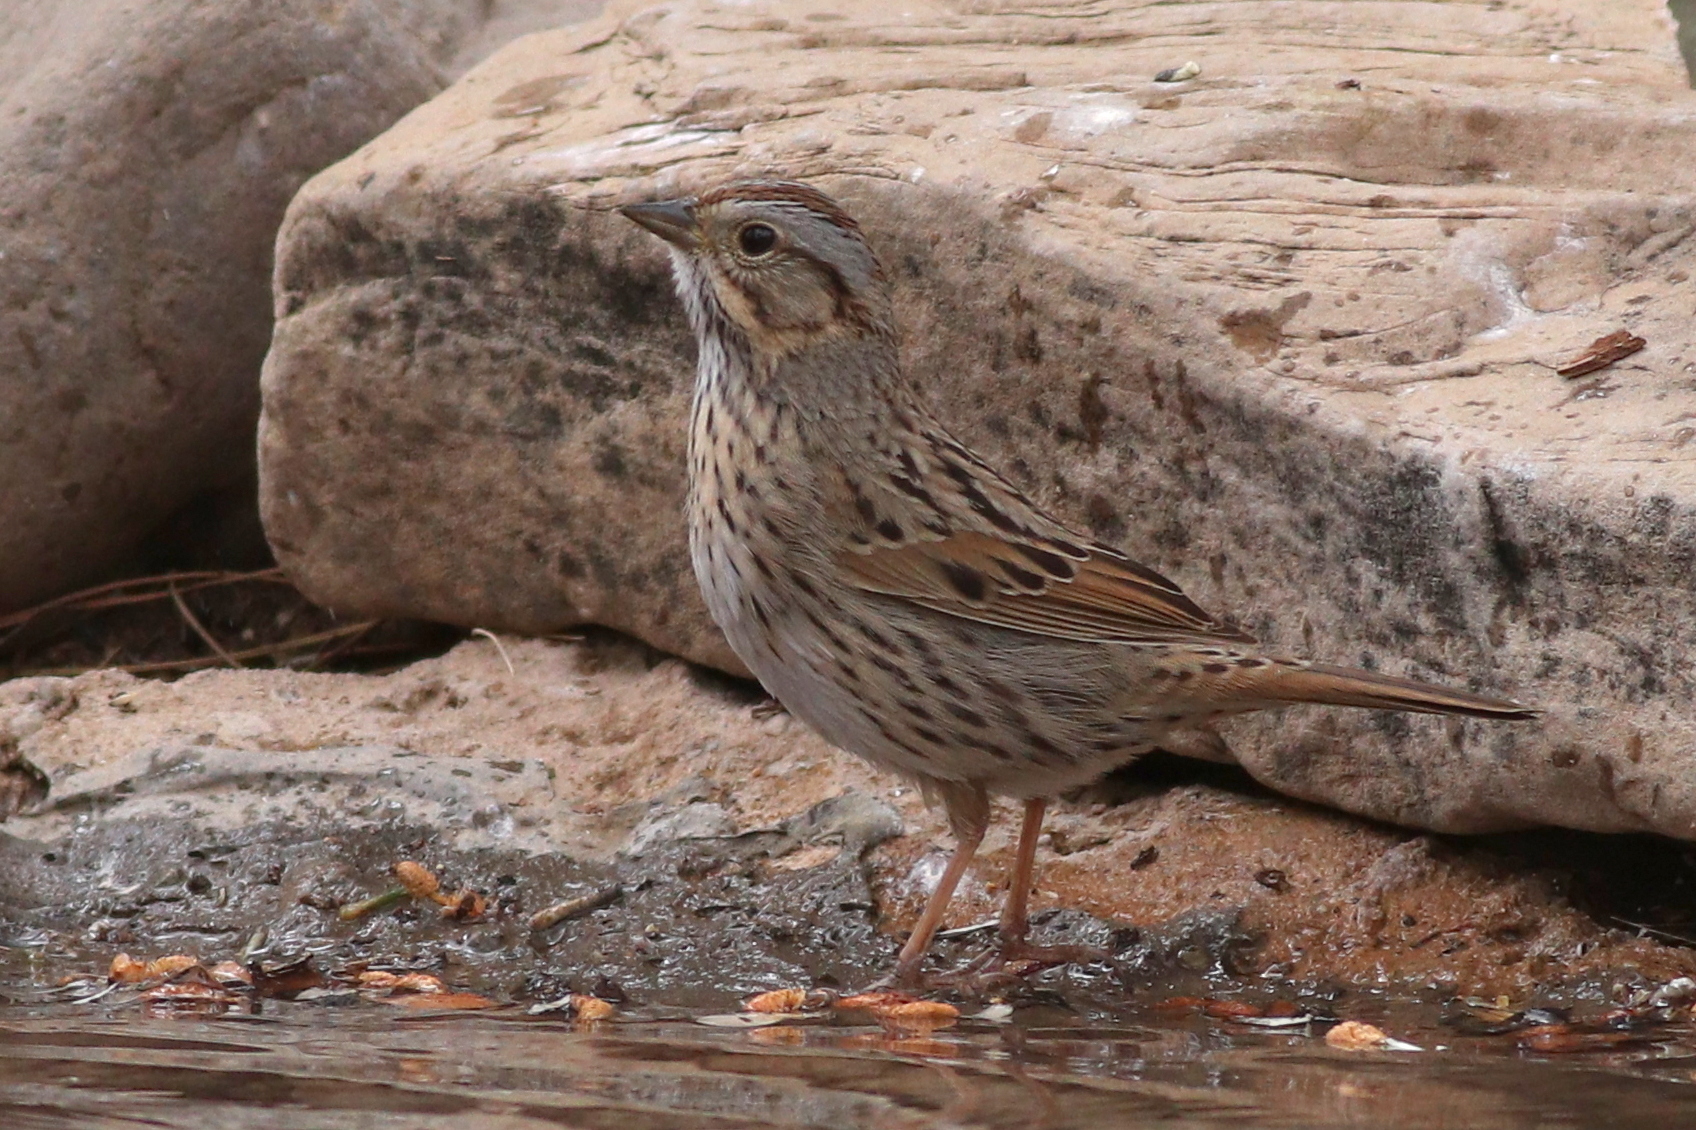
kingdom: Animalia
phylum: Chordata
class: Aves
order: Passeriformes
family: Passerellidae
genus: Melospiza
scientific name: Melospiza lincolnii
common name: Lincoln's sparrow
